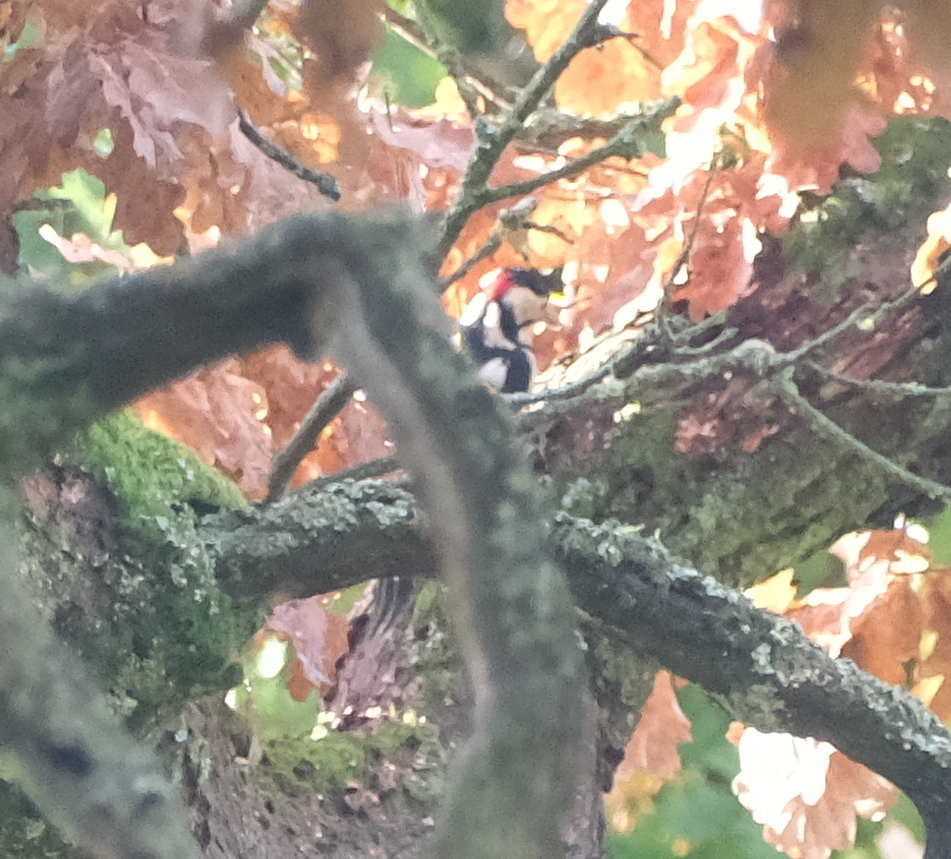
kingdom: Animalia
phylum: Chordata
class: Aves
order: Piciformes
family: Picidae
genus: Dendrocopos
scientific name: Dendrocopos major
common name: Great spotted woodpecker
